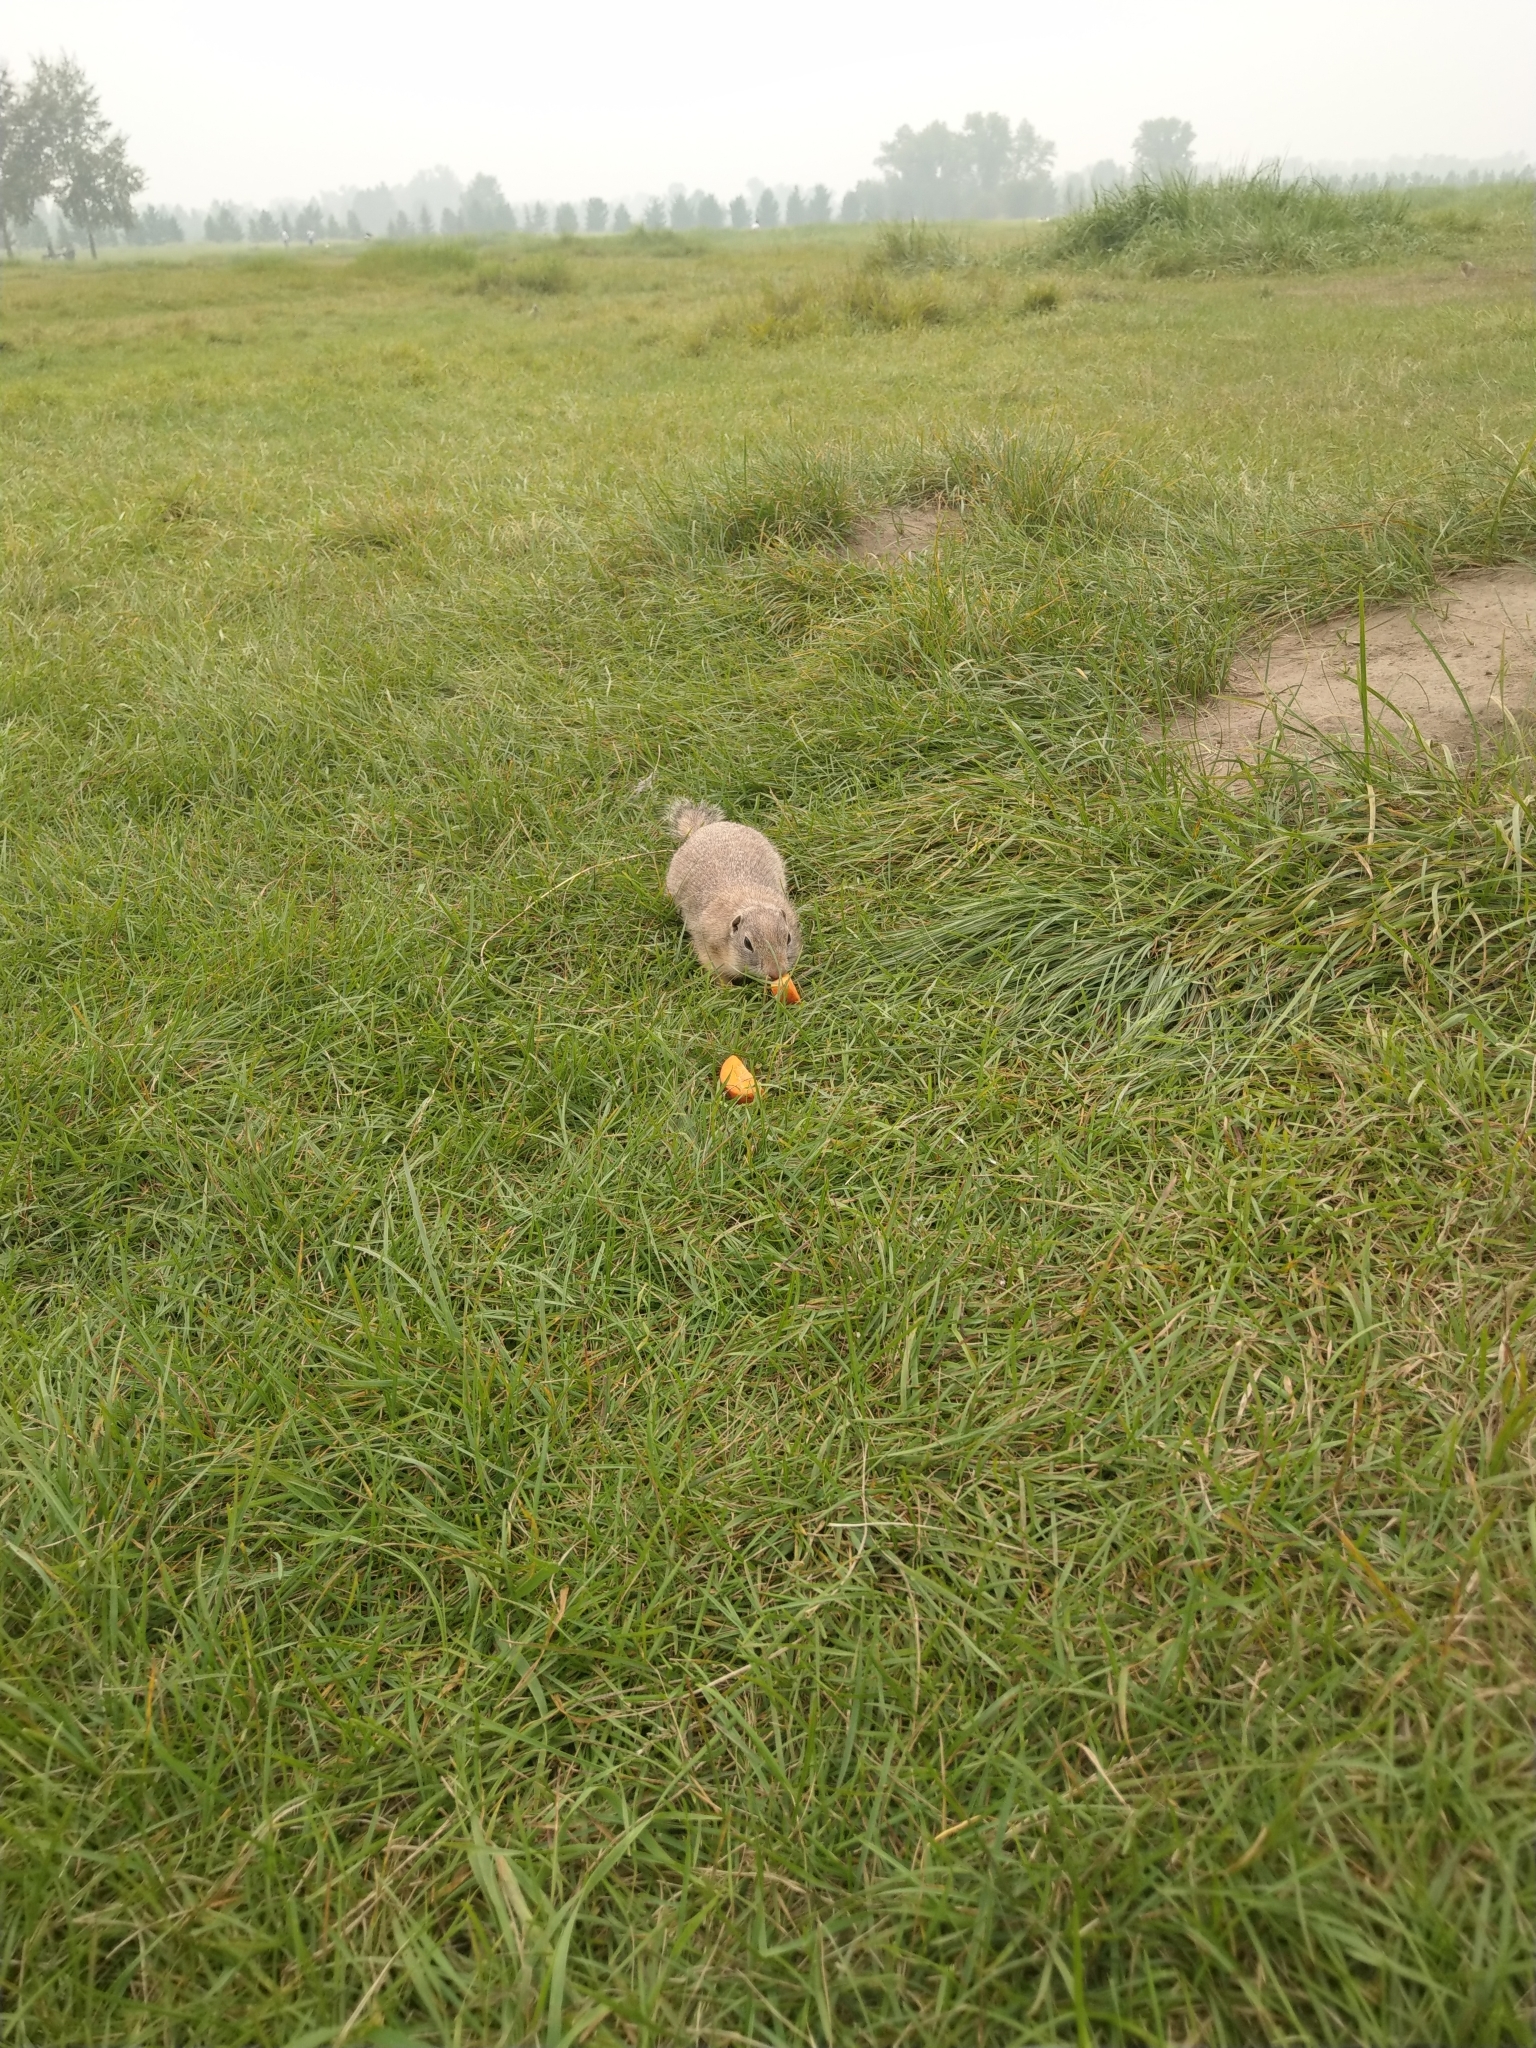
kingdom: Animalia
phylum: Chordata
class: Mammalia
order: Rodentia
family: Sciuridae
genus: Urocitellus
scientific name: Urocitellus undulatus
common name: Long-tailed ground squirrel
